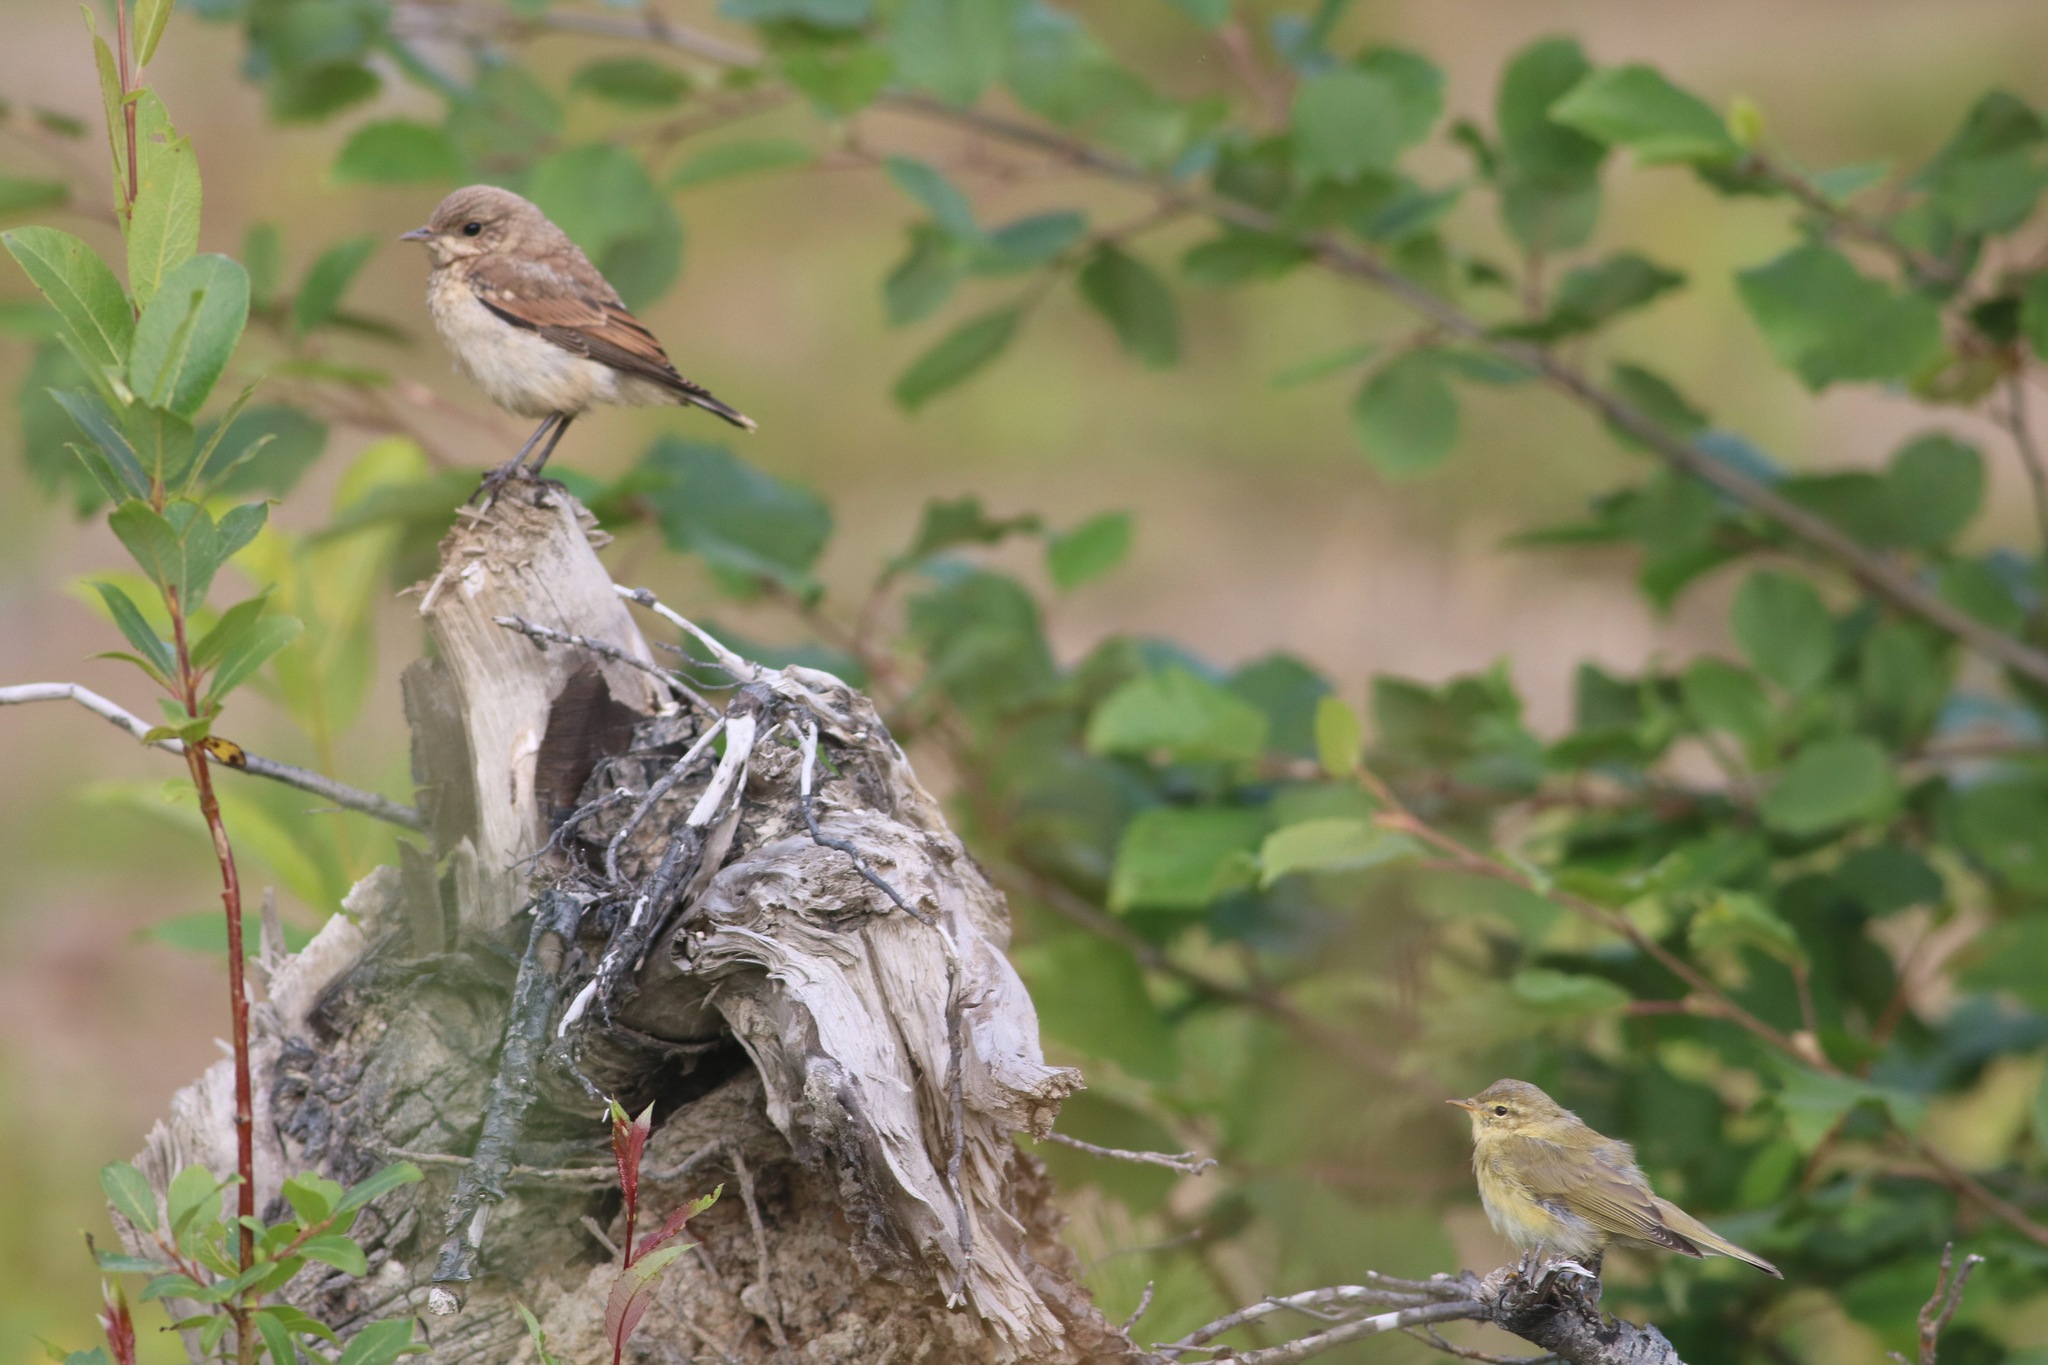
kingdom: Animalia
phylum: Chordata
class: Aves
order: Passeriformes
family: Phylloscopidae
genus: Phylloscopus
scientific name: Phylloscopus trochilus
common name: Willow warbler
